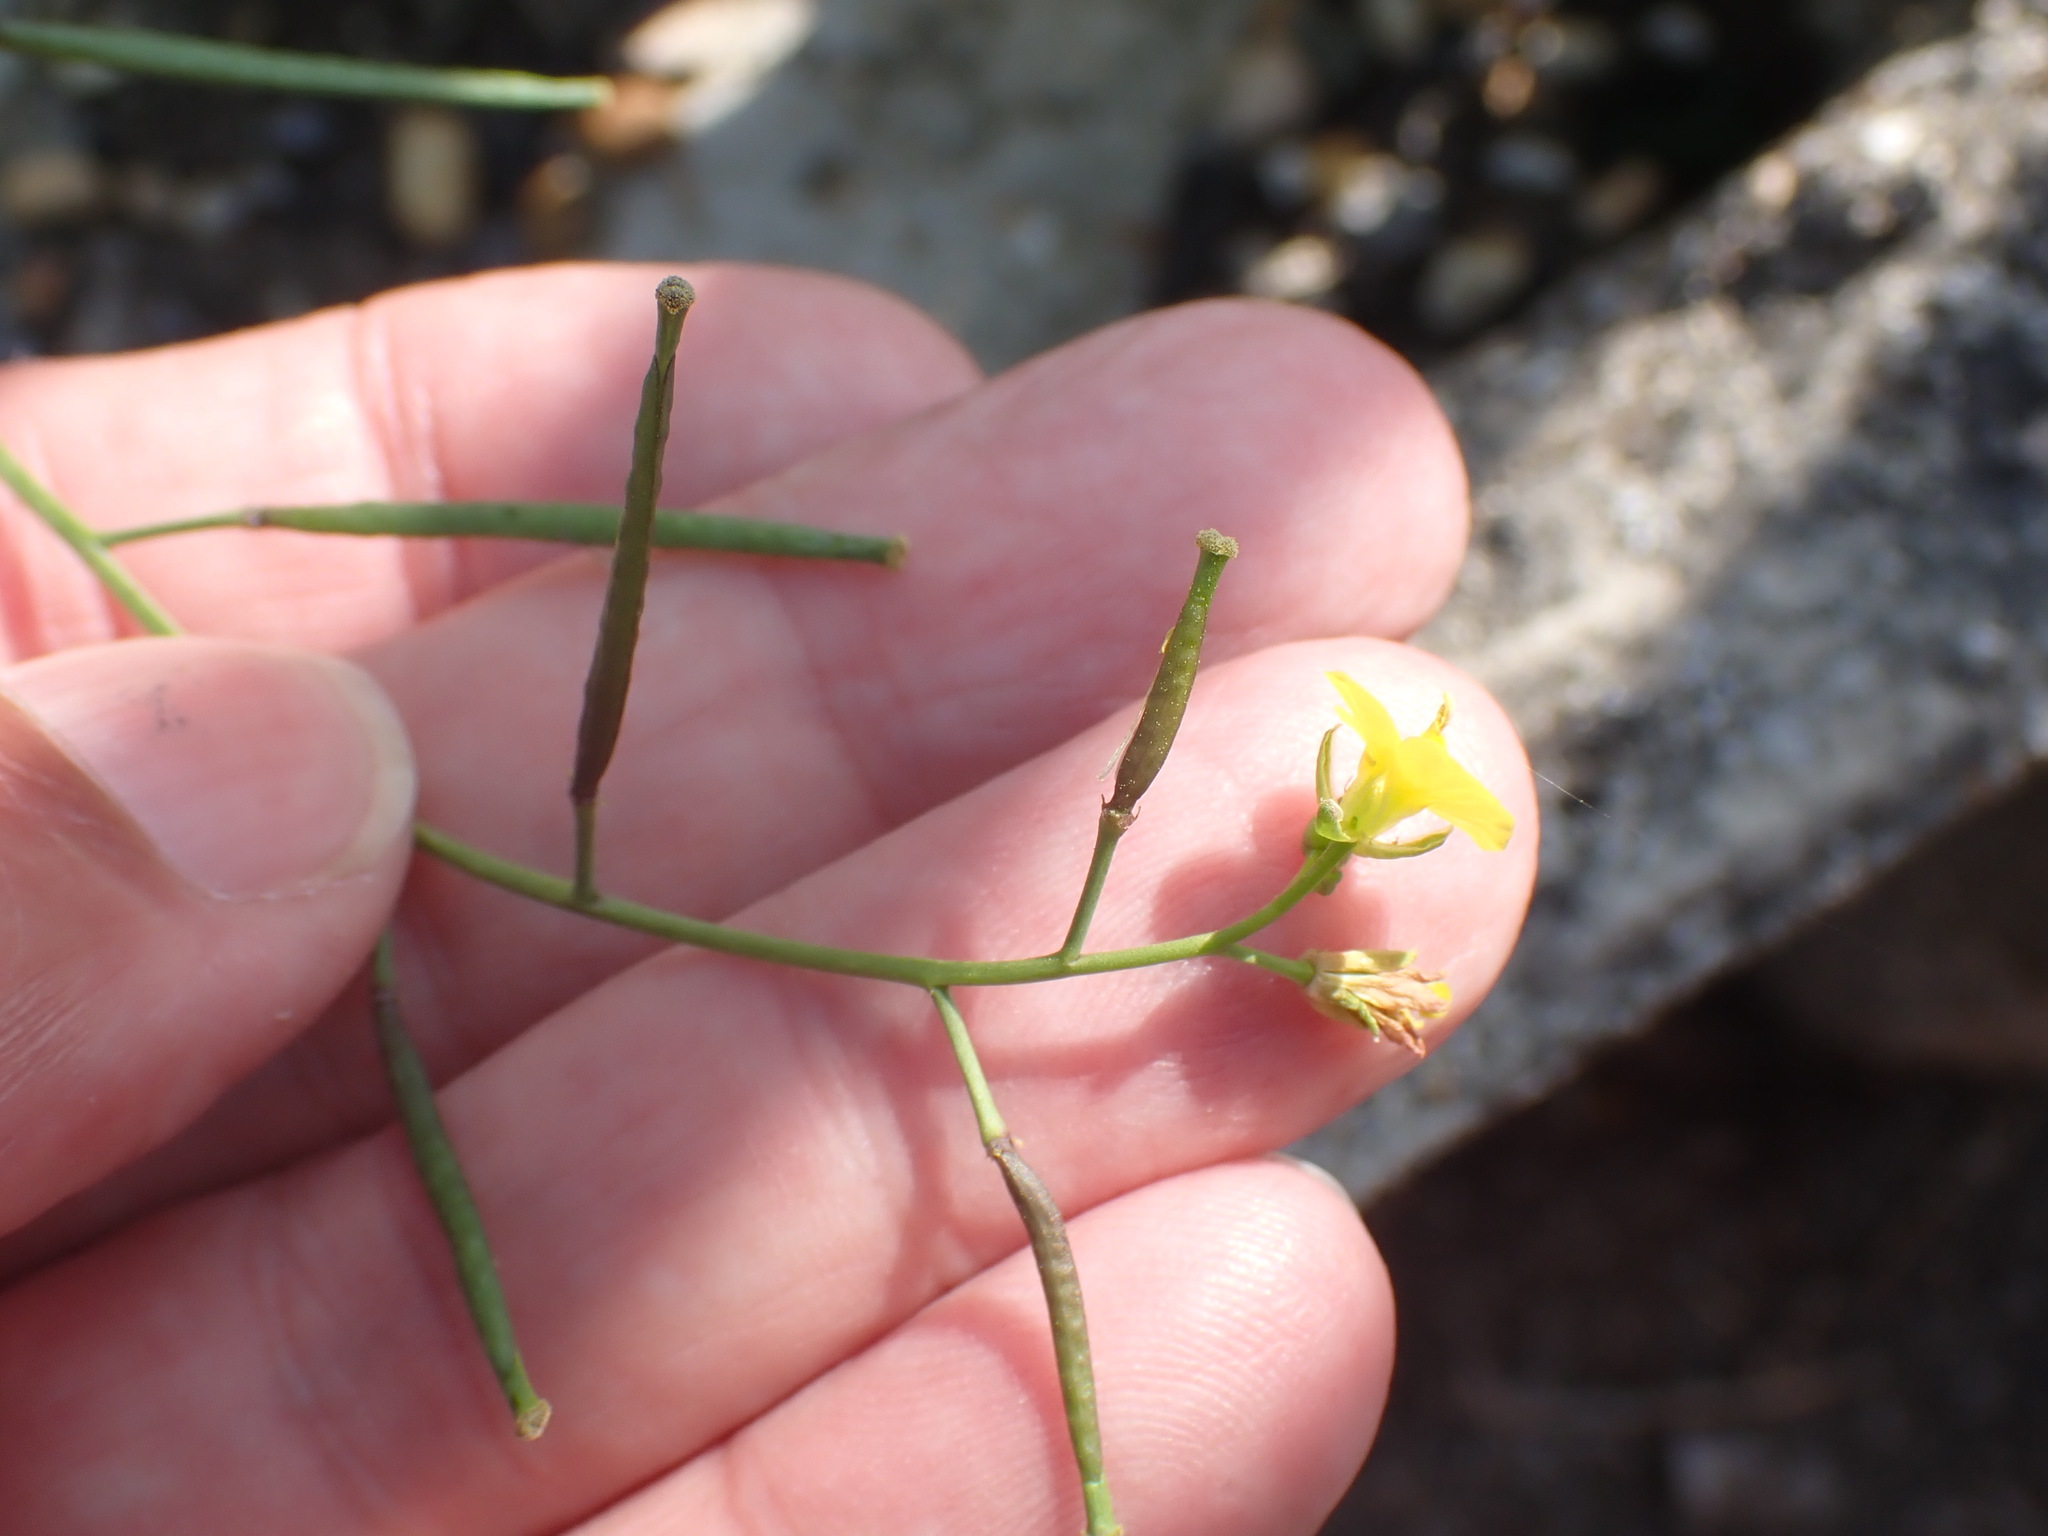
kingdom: Plantae
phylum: Tracheophyta
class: Magnoliopsida
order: Brassicales
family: Brassicaceae
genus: Diplotaxis
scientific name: Diplotaxis muralis
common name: Annual wall-rocket
